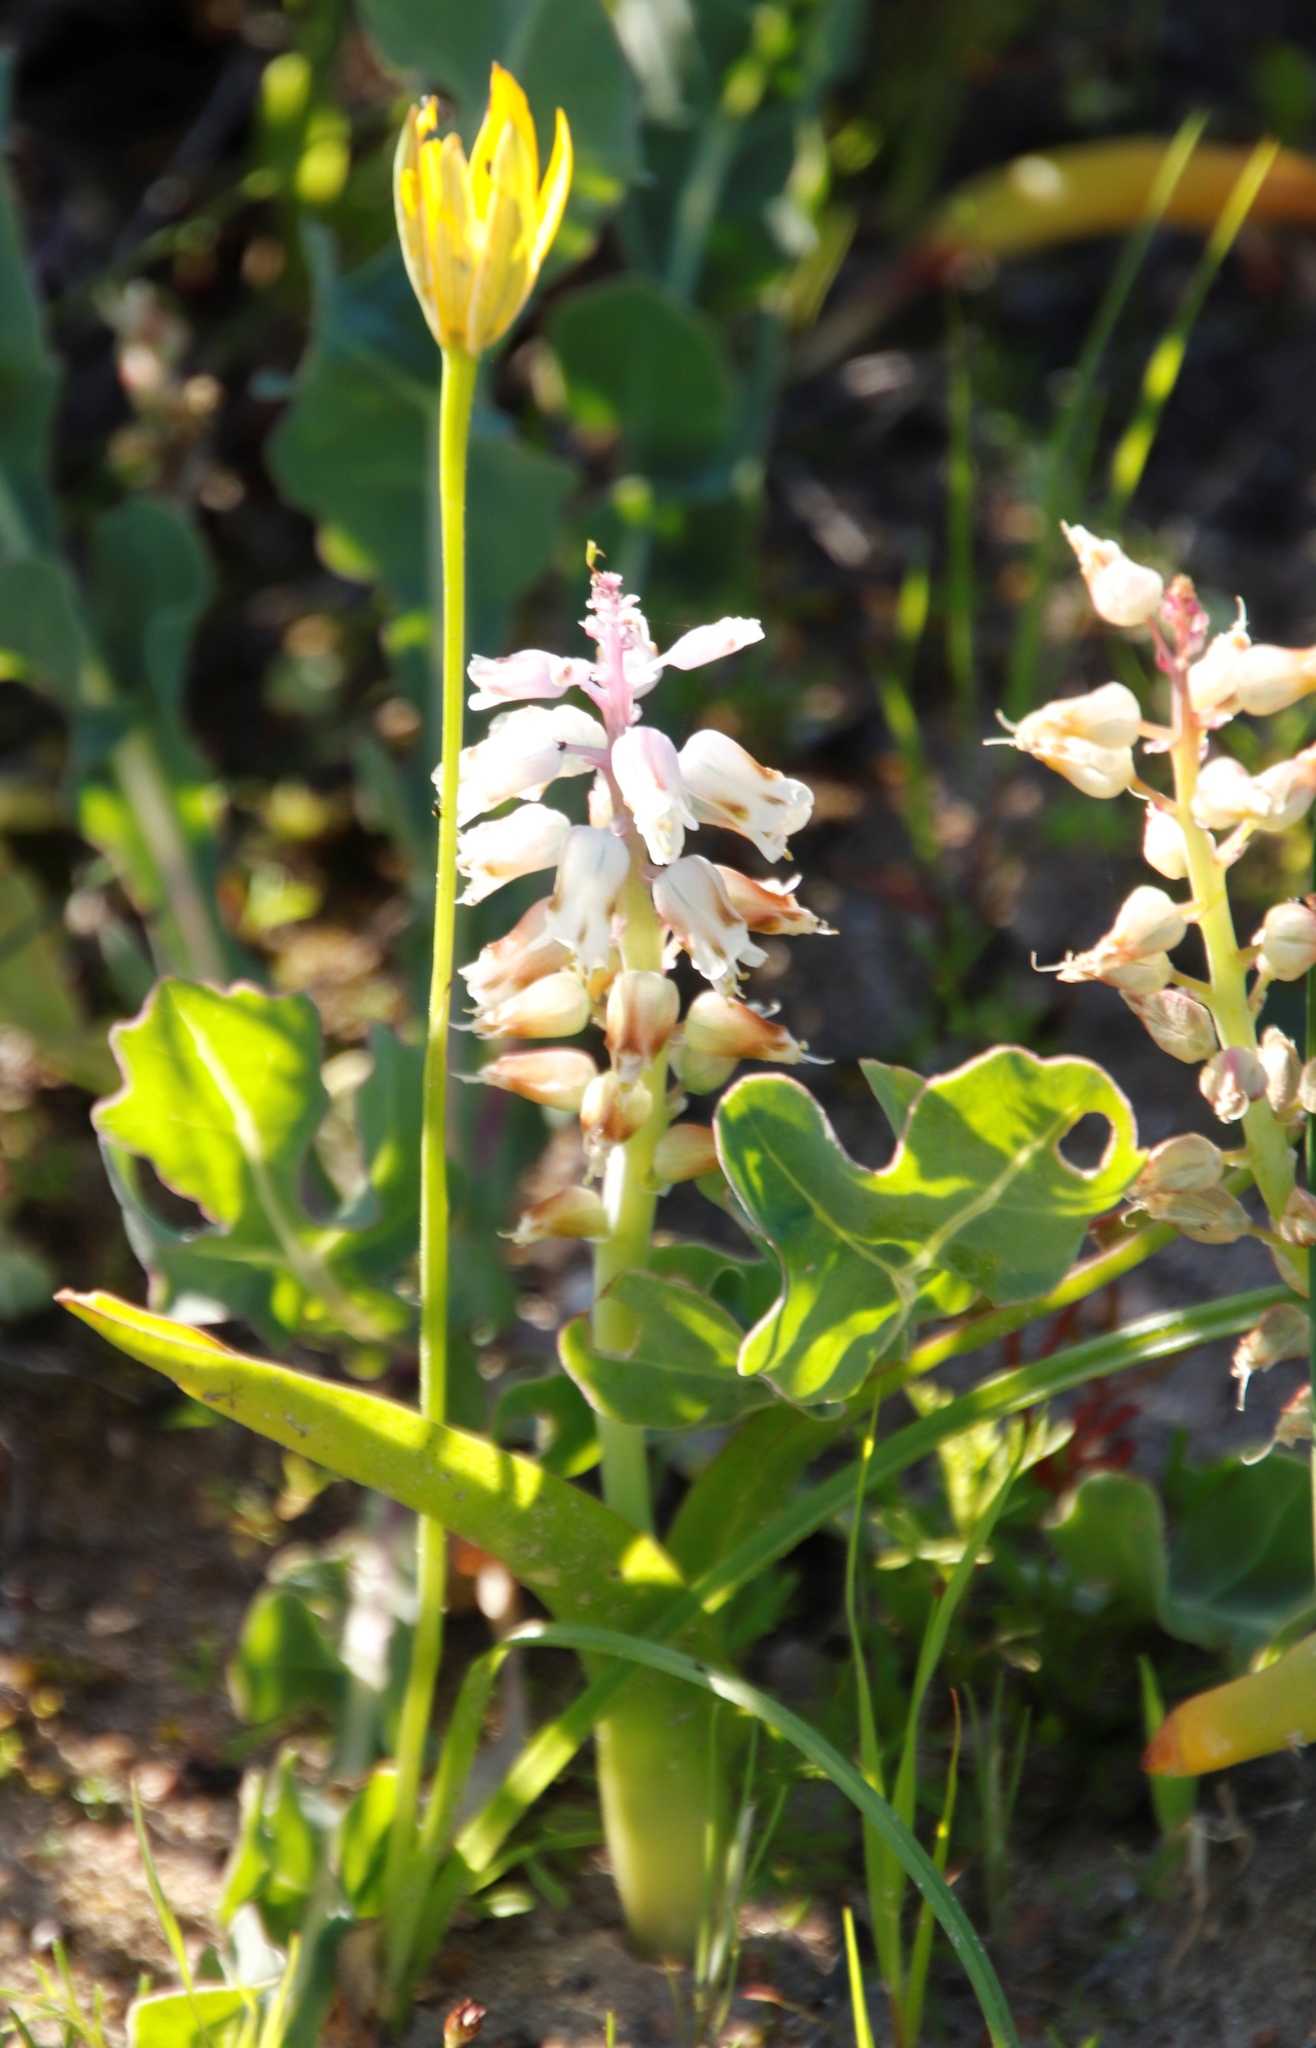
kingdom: Plantae
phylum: Tracheophyta
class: Liliopsida
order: Asparagales
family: Asparagaceae
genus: Lachenalia
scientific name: Lachenalia pallida
